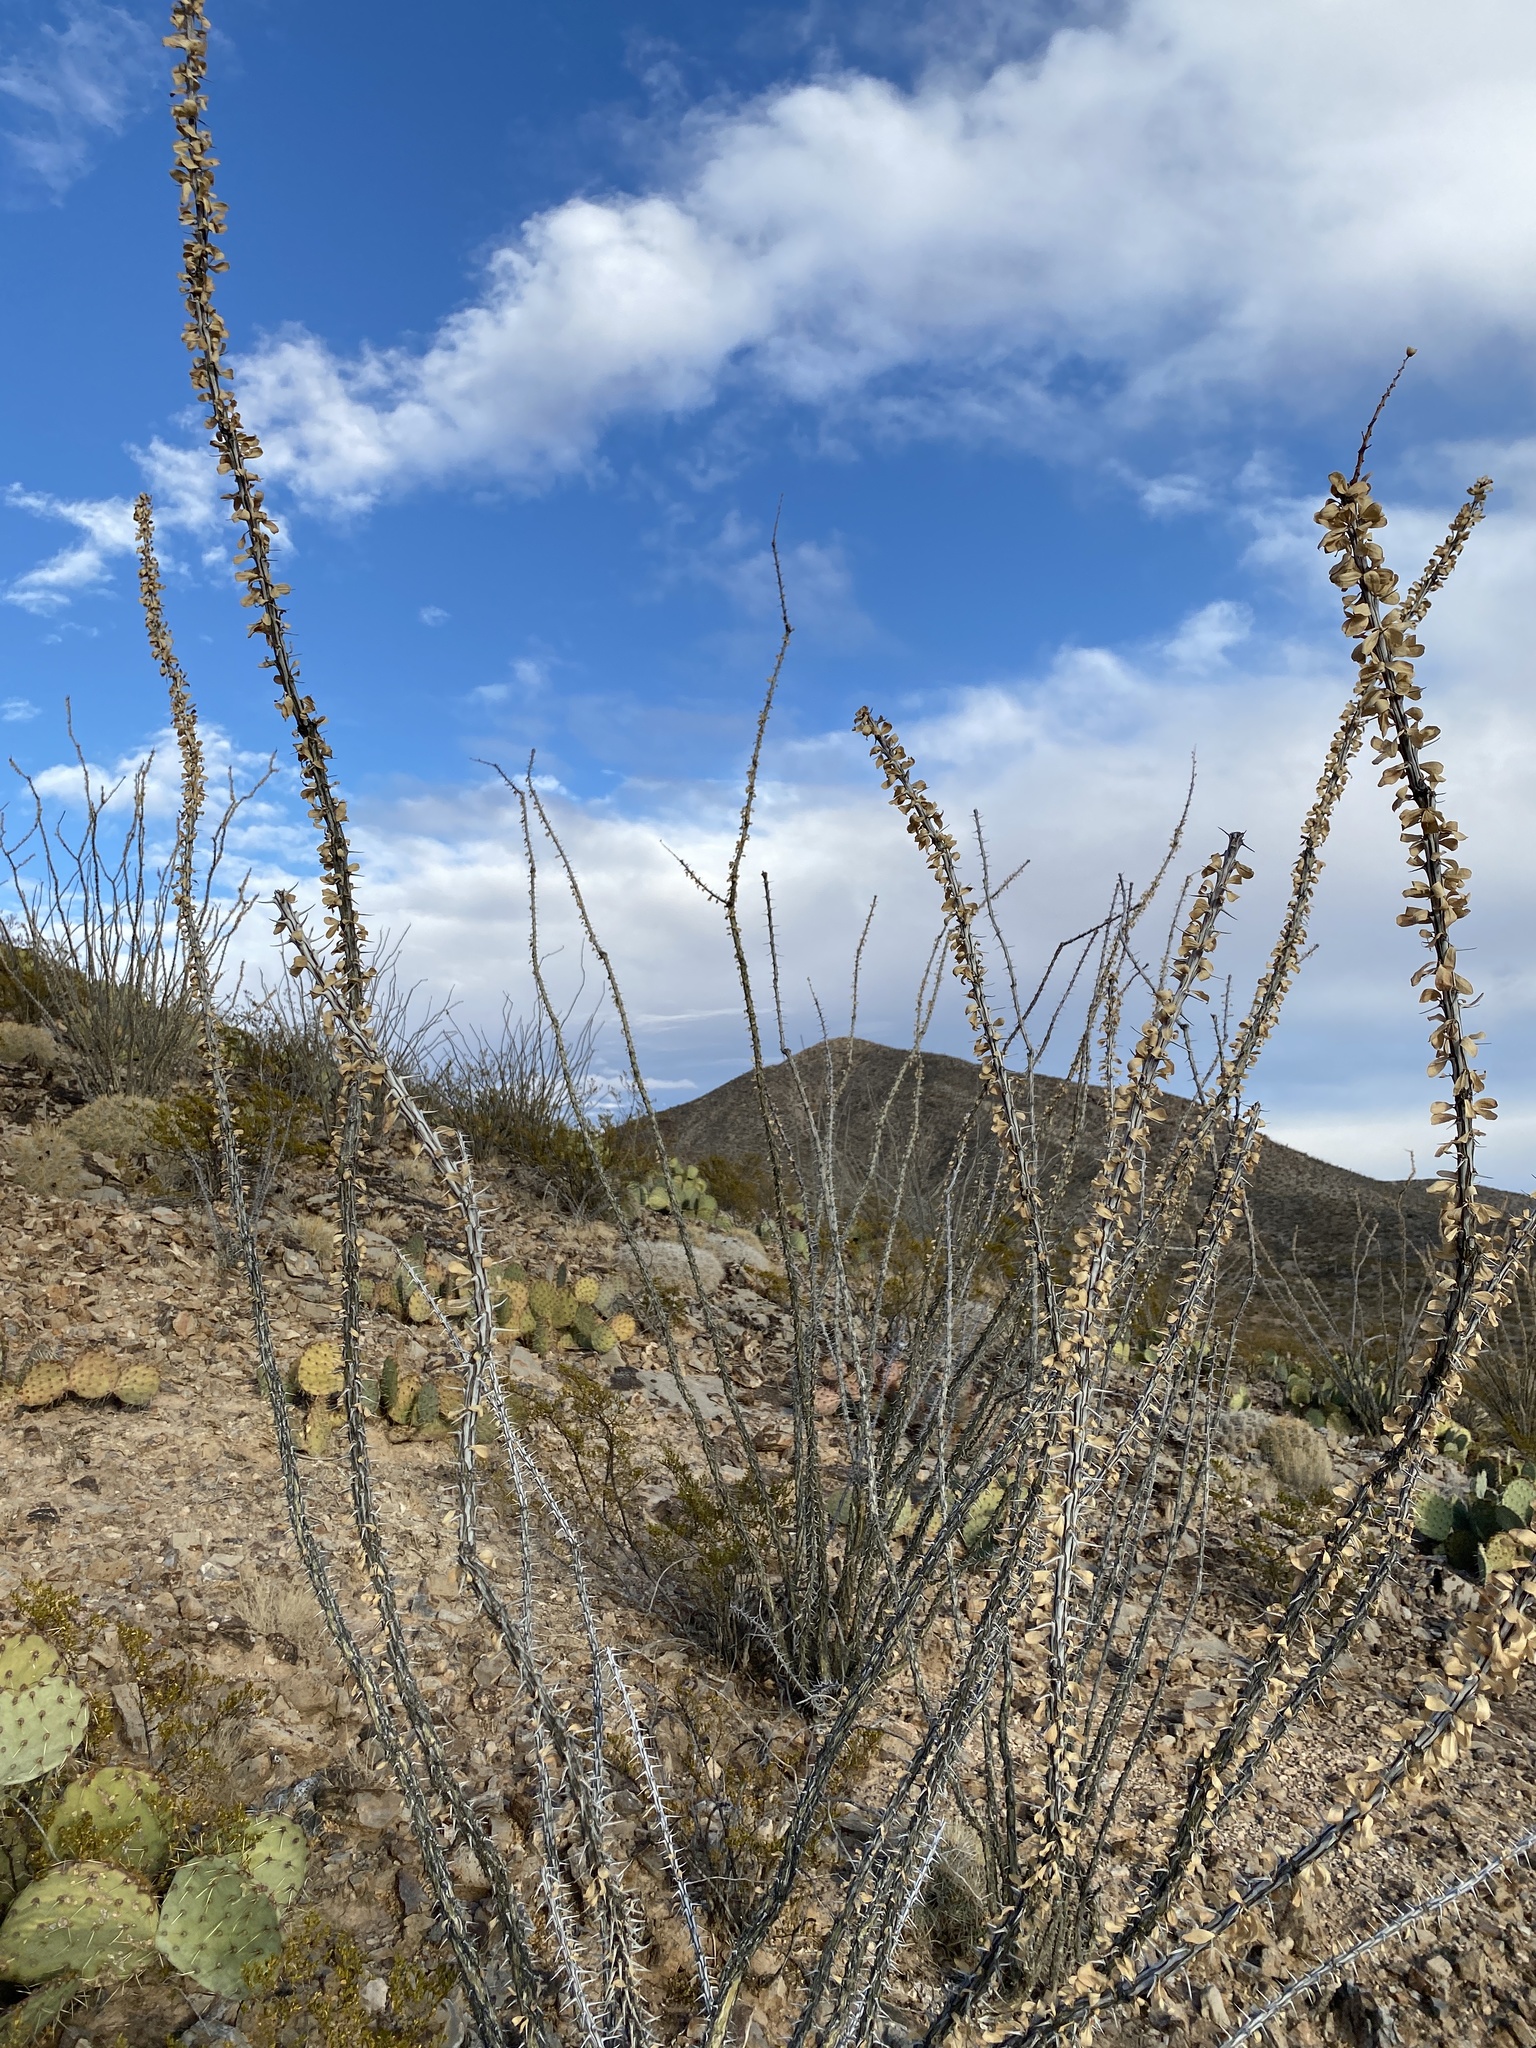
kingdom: Plantae
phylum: Tracheophyta
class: Magnoliopsida
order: Ericales
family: Fouquieriaceae
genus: Fouquieria
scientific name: Fouquieria splendens
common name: Vine-cactus
